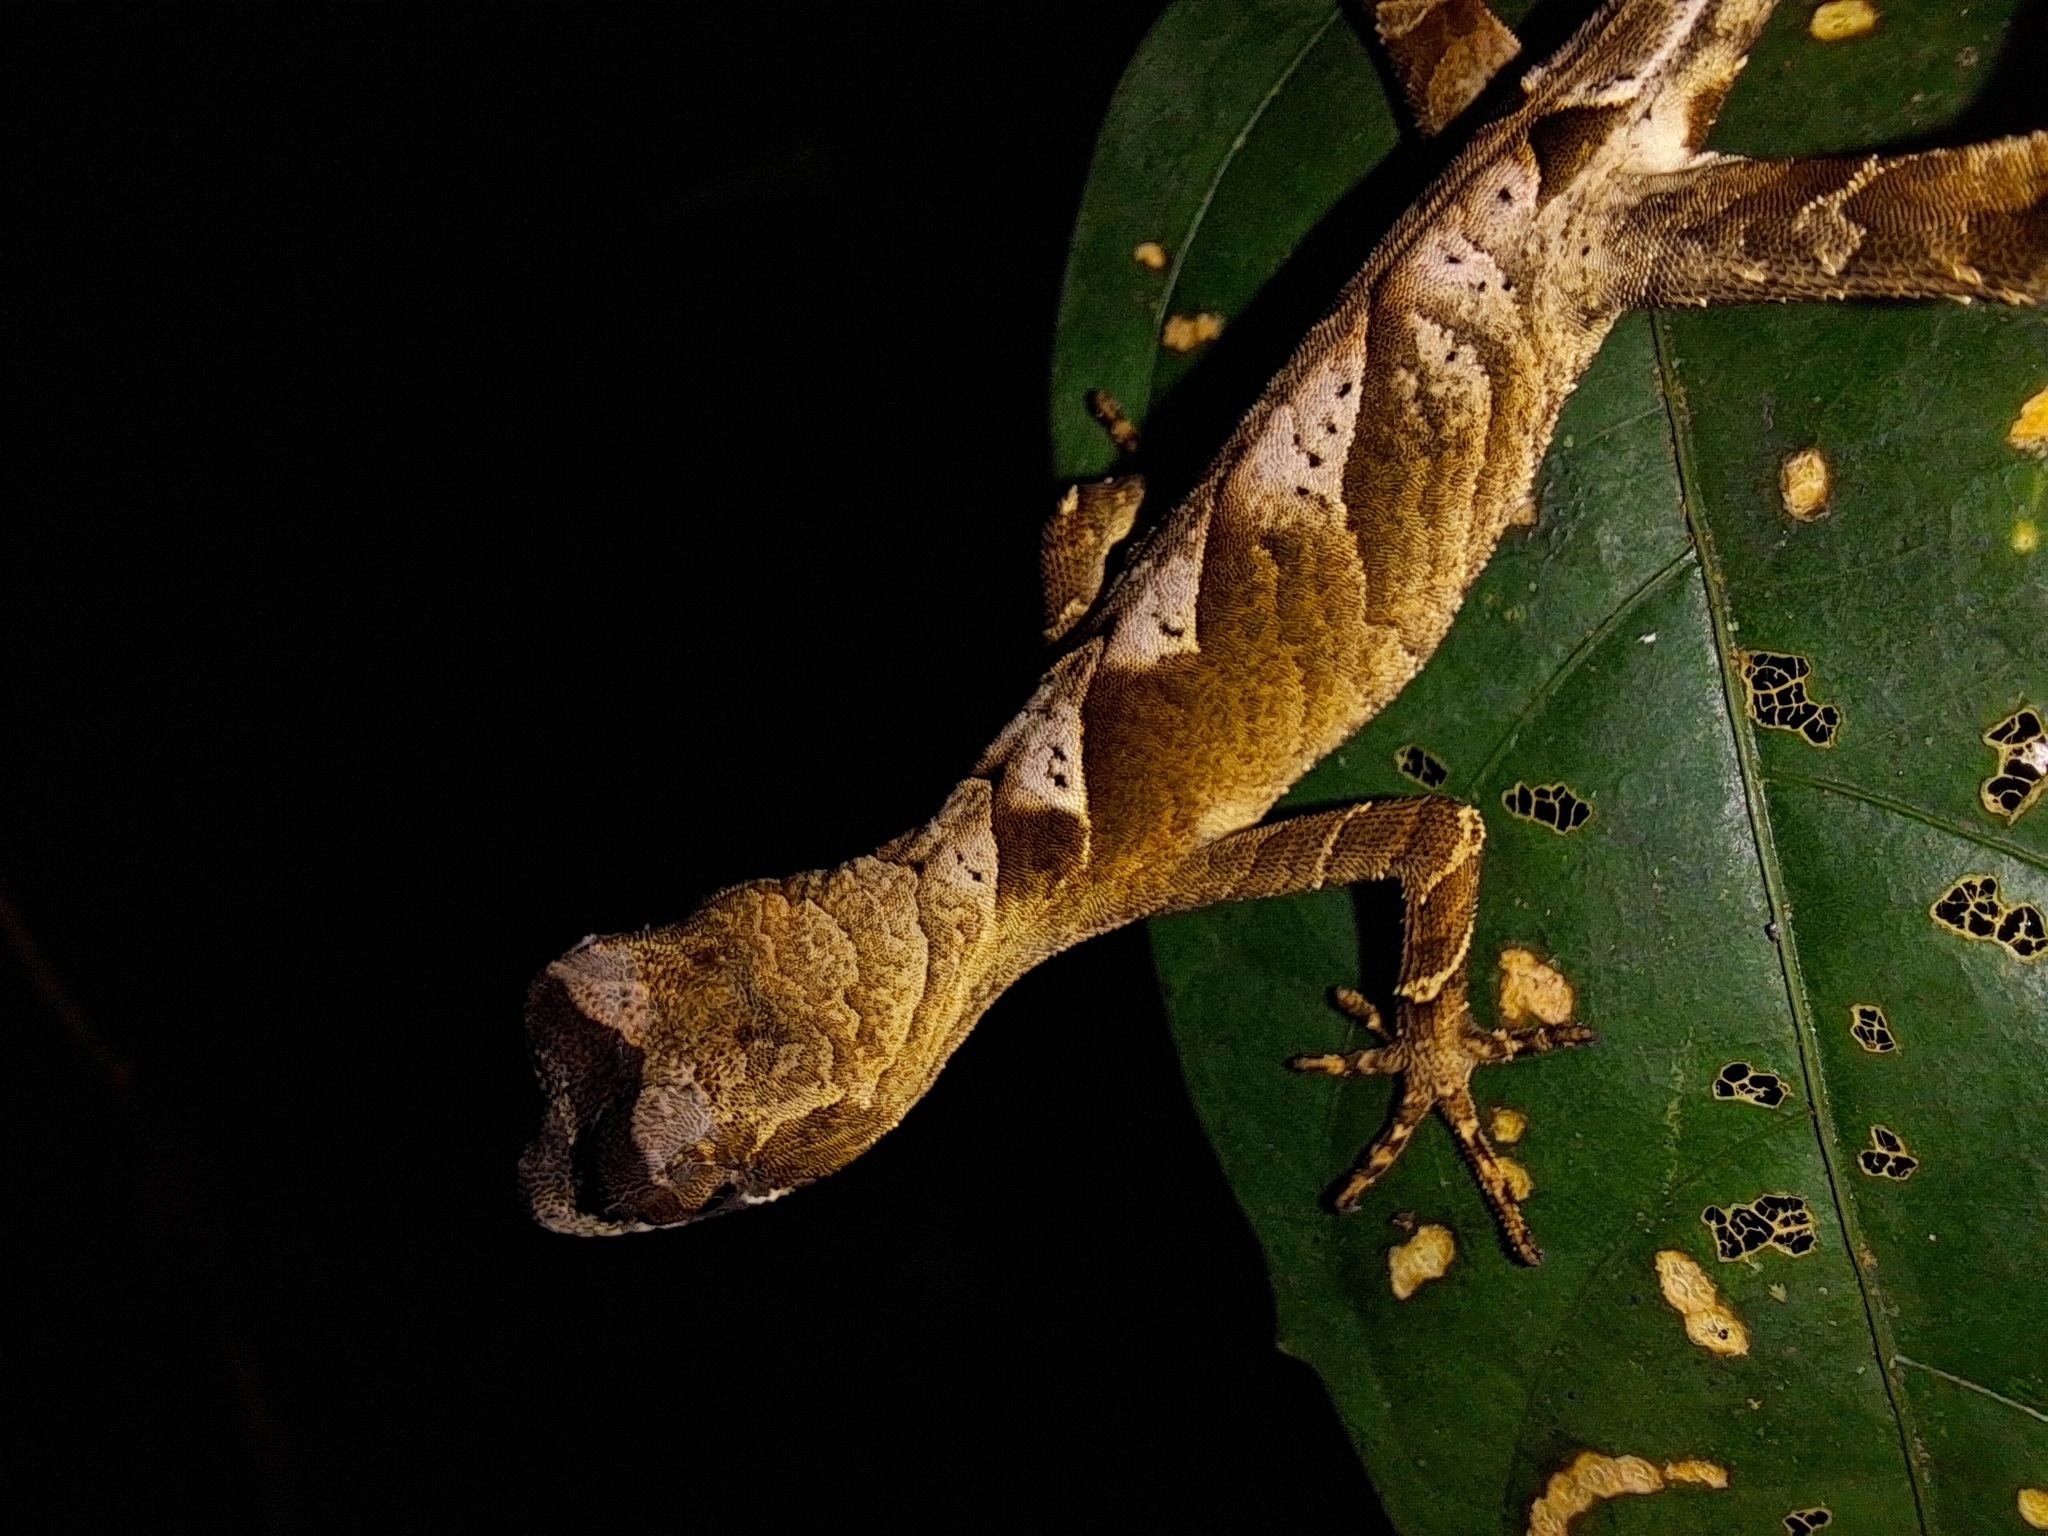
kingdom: Animalia
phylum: Chordata
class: Squamata
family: Dactyloidae
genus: Anolis
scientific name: Anolis scypheus
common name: Yellow-tongued anole
